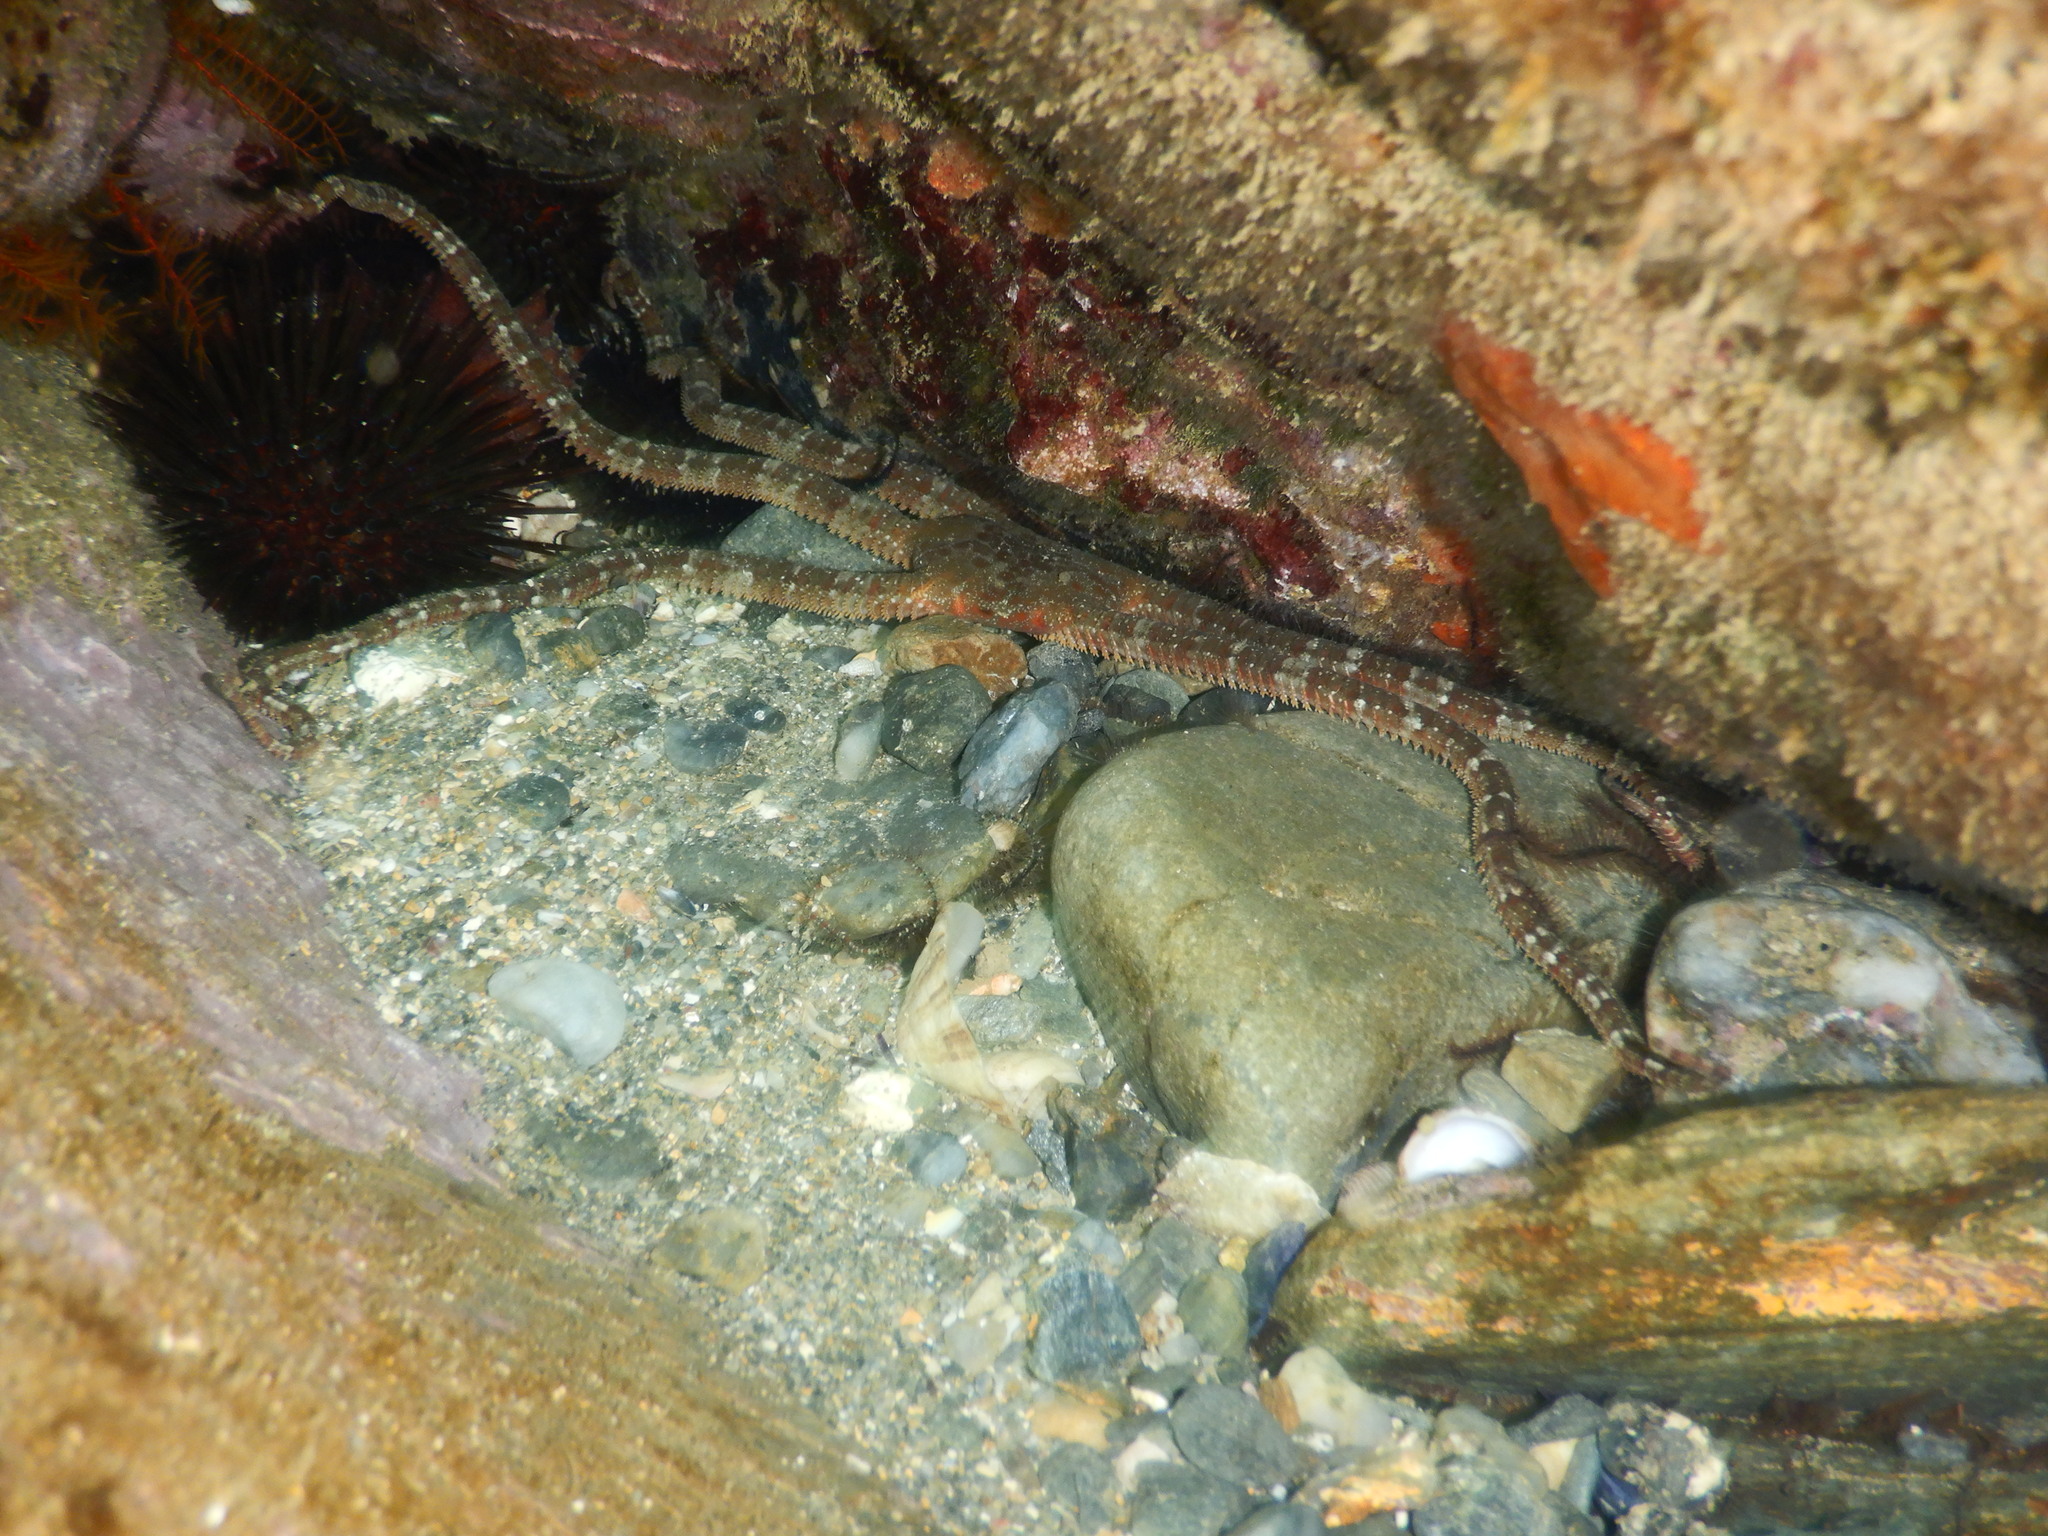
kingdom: Animalia
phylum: Echinodermata
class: Ophiuroidea
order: Ophiacanthida
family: Ophiodermatidae
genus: Ophioderma
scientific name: Ophioderma longicaudum
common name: Smooth brittle-star
